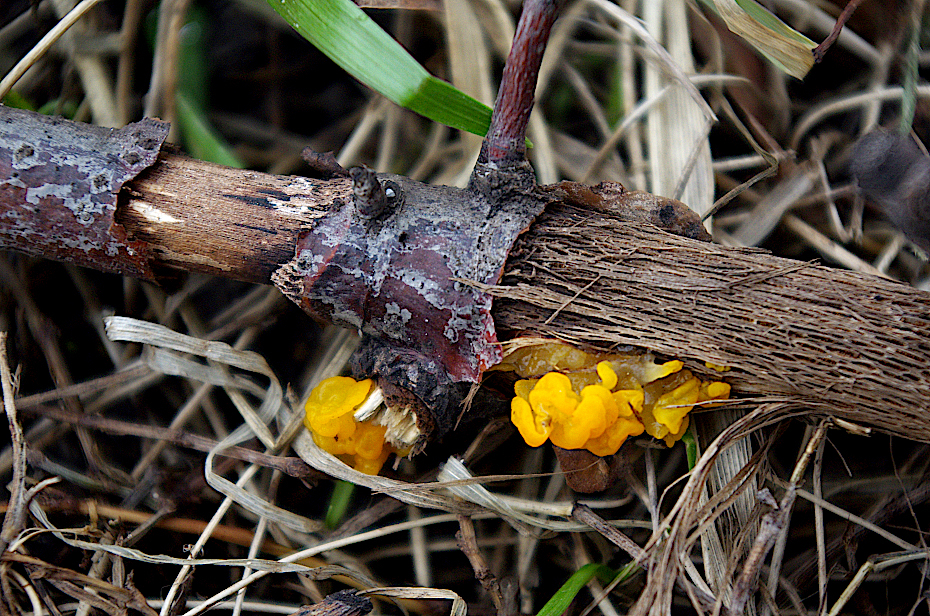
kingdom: Fungi
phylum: Basidiomycota
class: Tremellomycetes
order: Tremellales
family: Tremellaceae
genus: Tremella
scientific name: Tremella mesenterica
